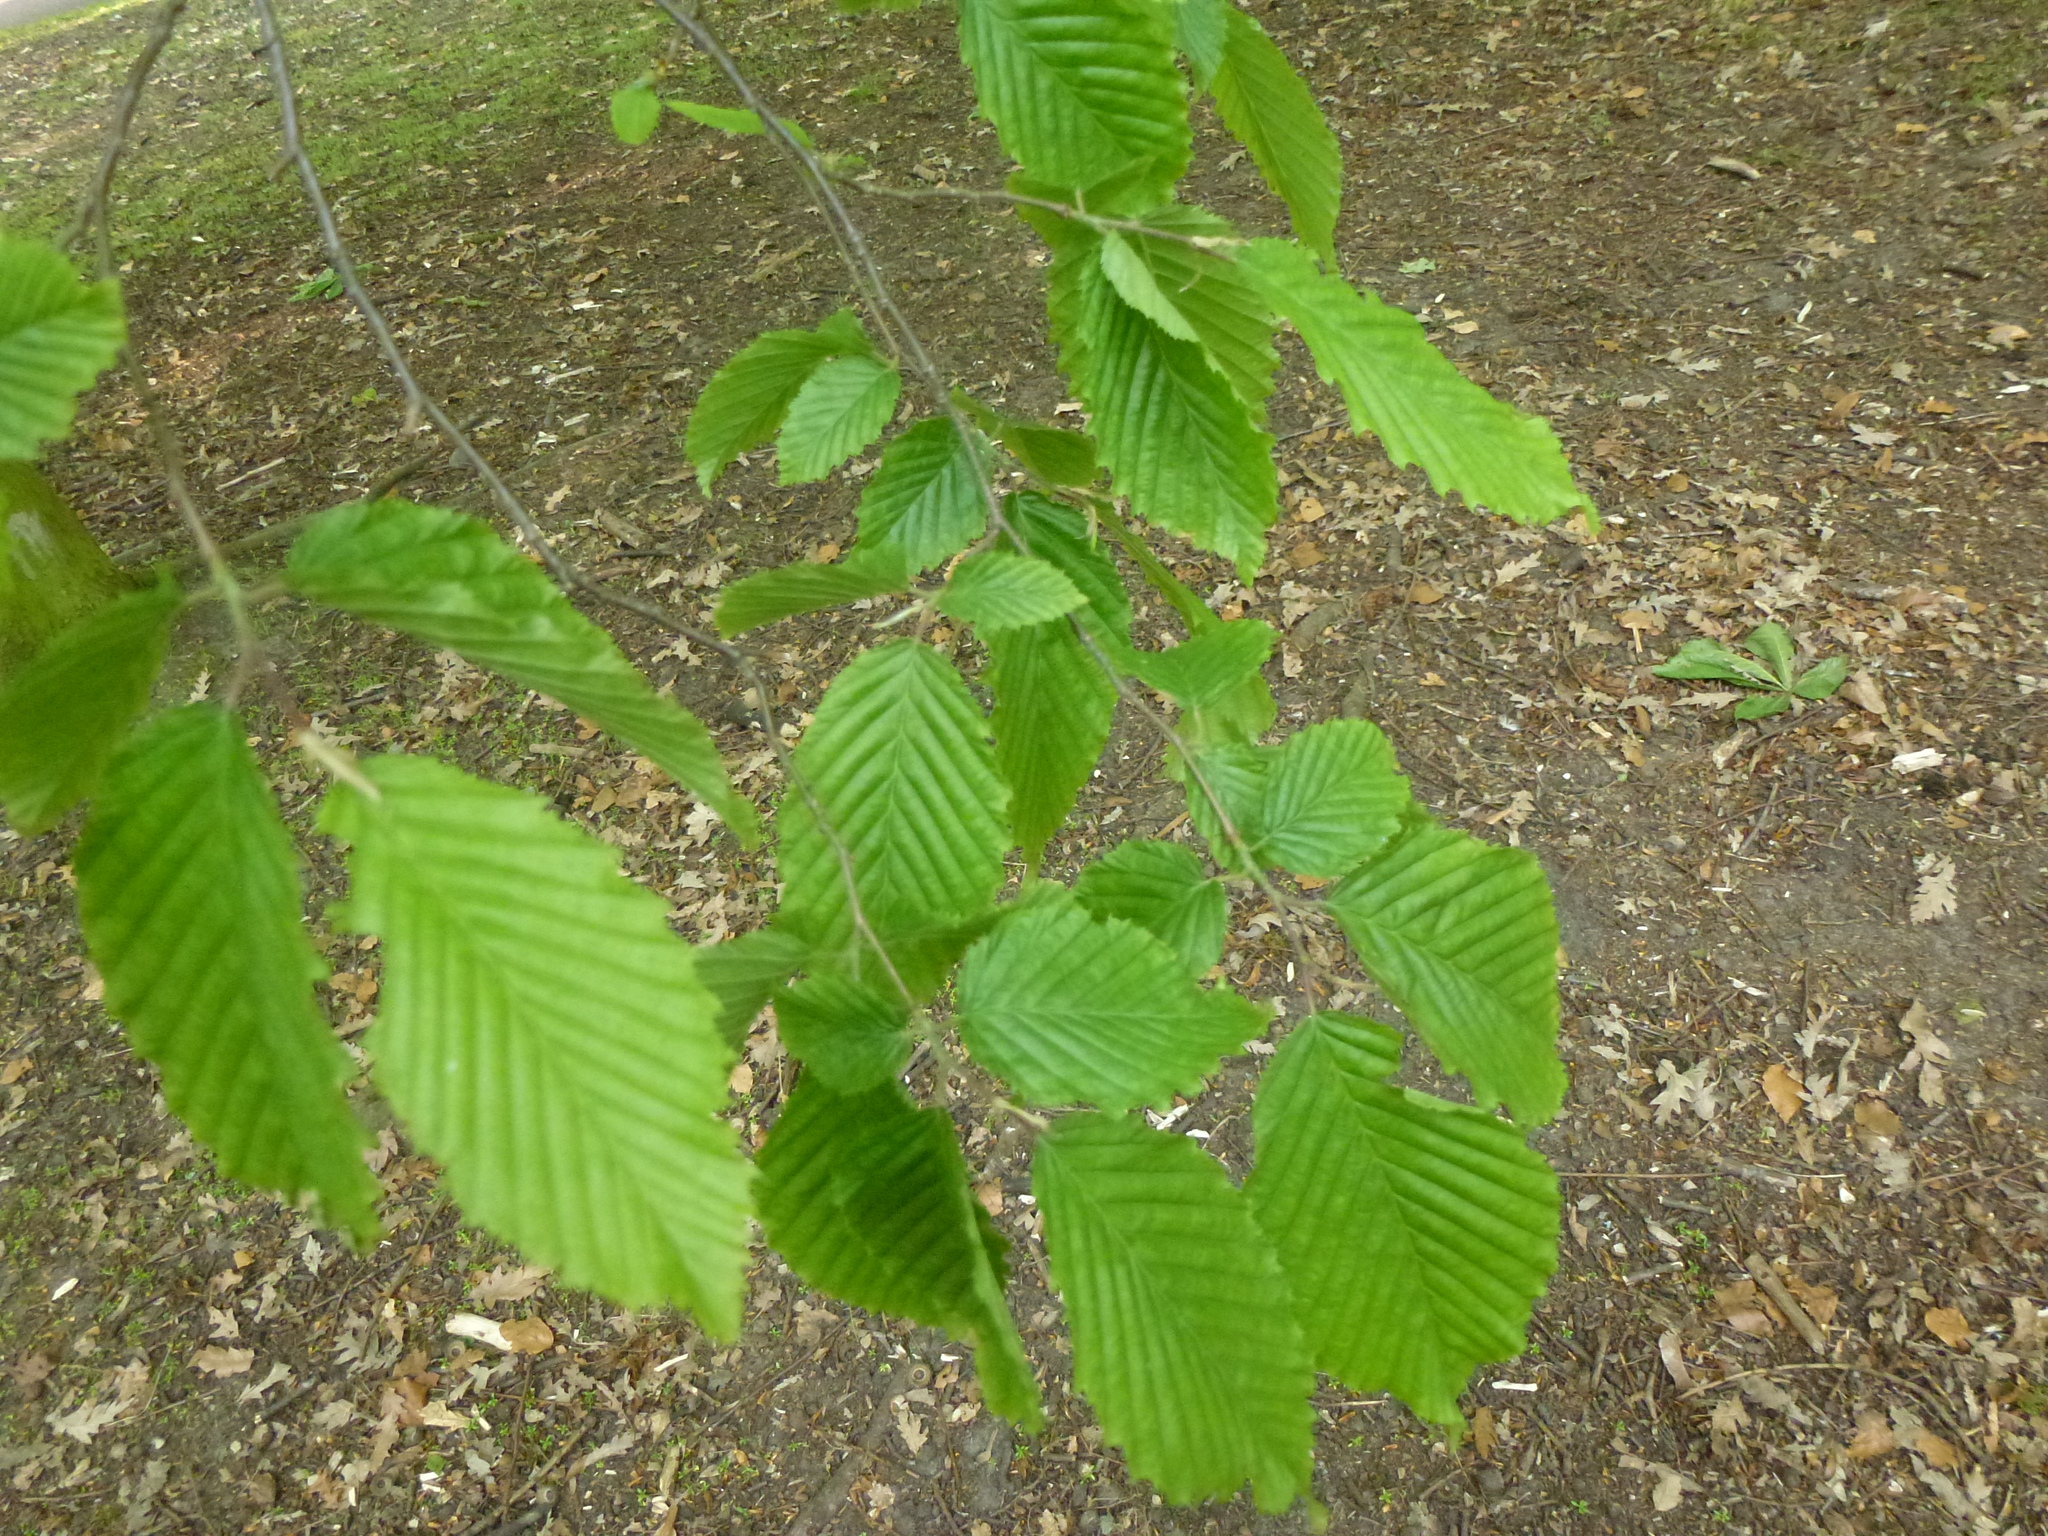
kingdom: Plantae
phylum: Tracheophyta
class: Magnoliopsida
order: Fagales
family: Betulaceae
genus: Carpinus
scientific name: Carpinus betulus
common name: Hornbeam
